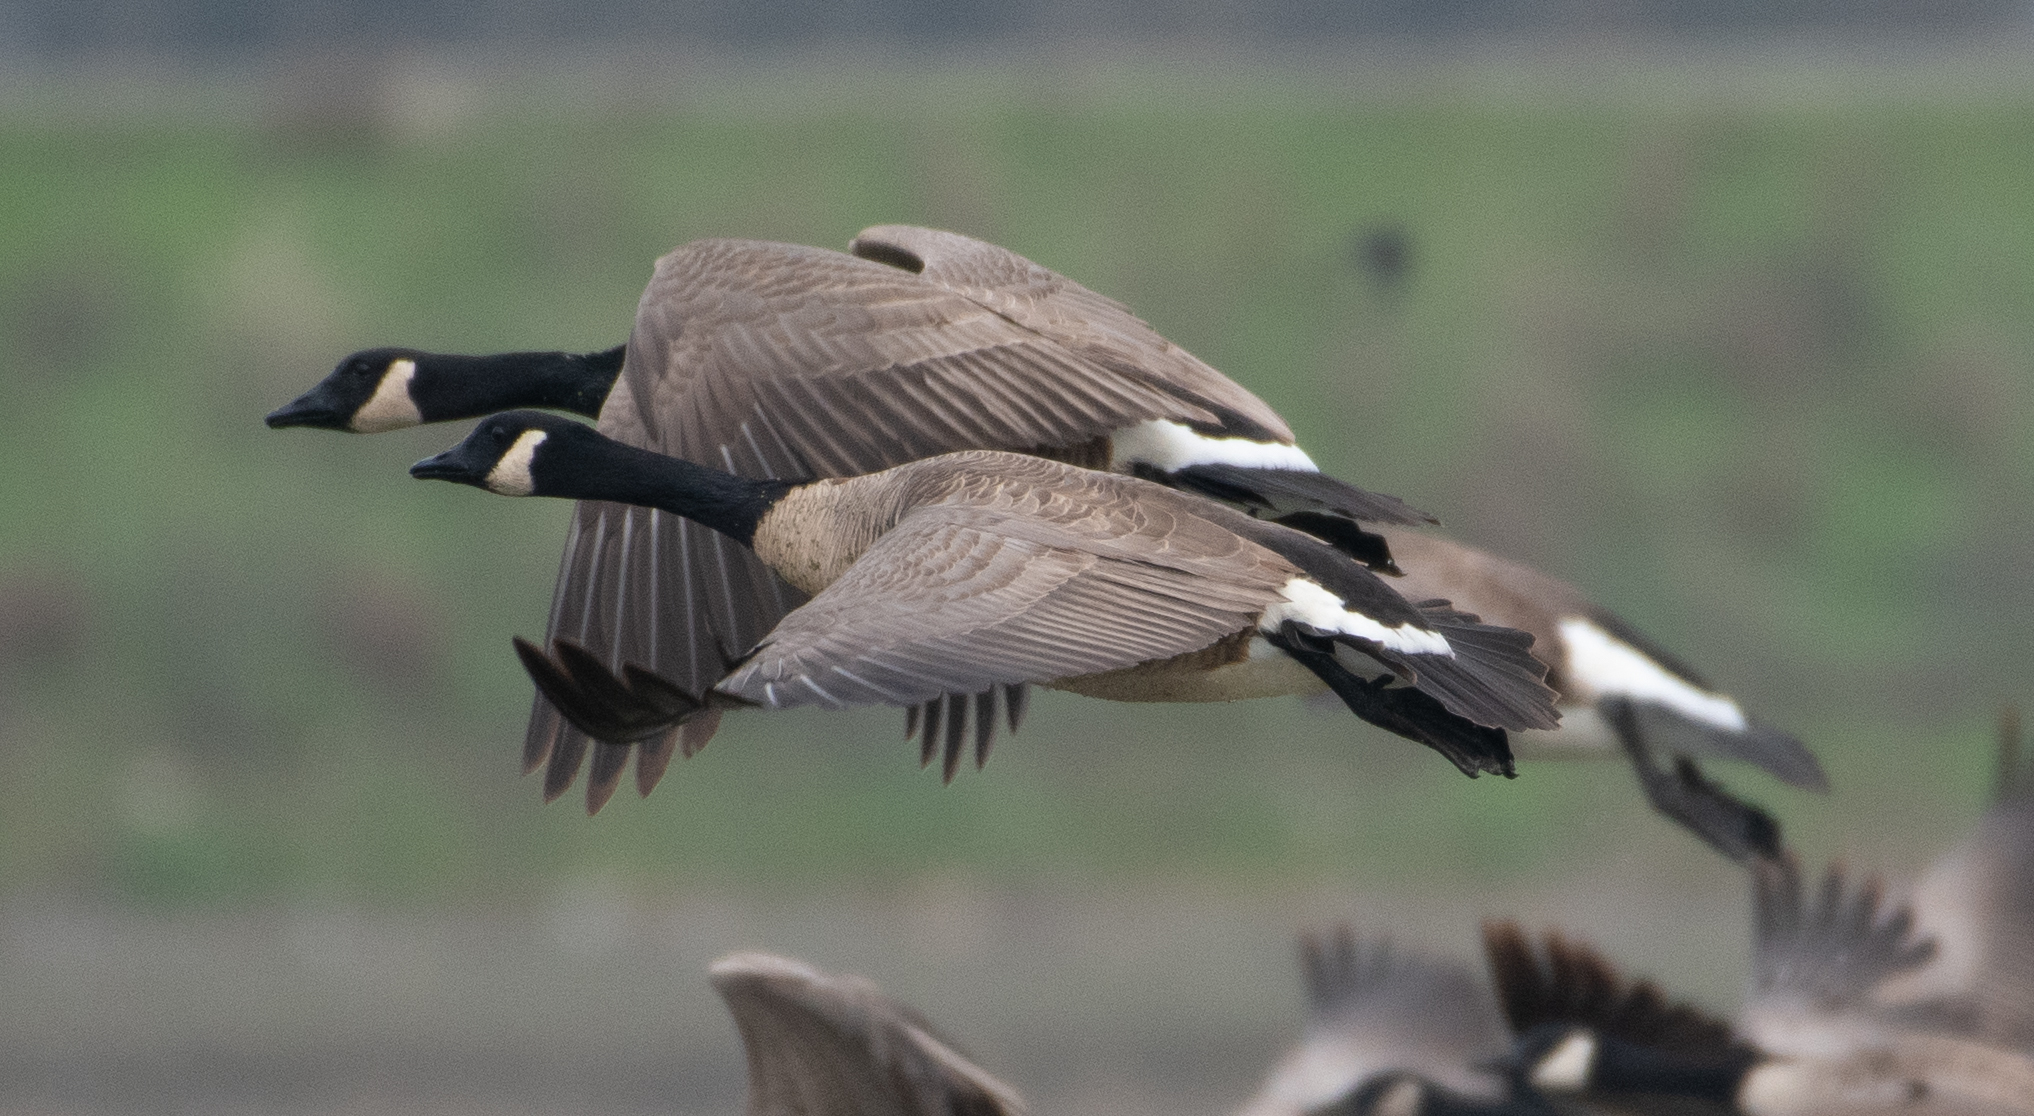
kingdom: Animalia
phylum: Chordata
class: Aves
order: Anseriformes
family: Anatidae
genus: Branta
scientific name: Branta canadensis
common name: Canada goose
